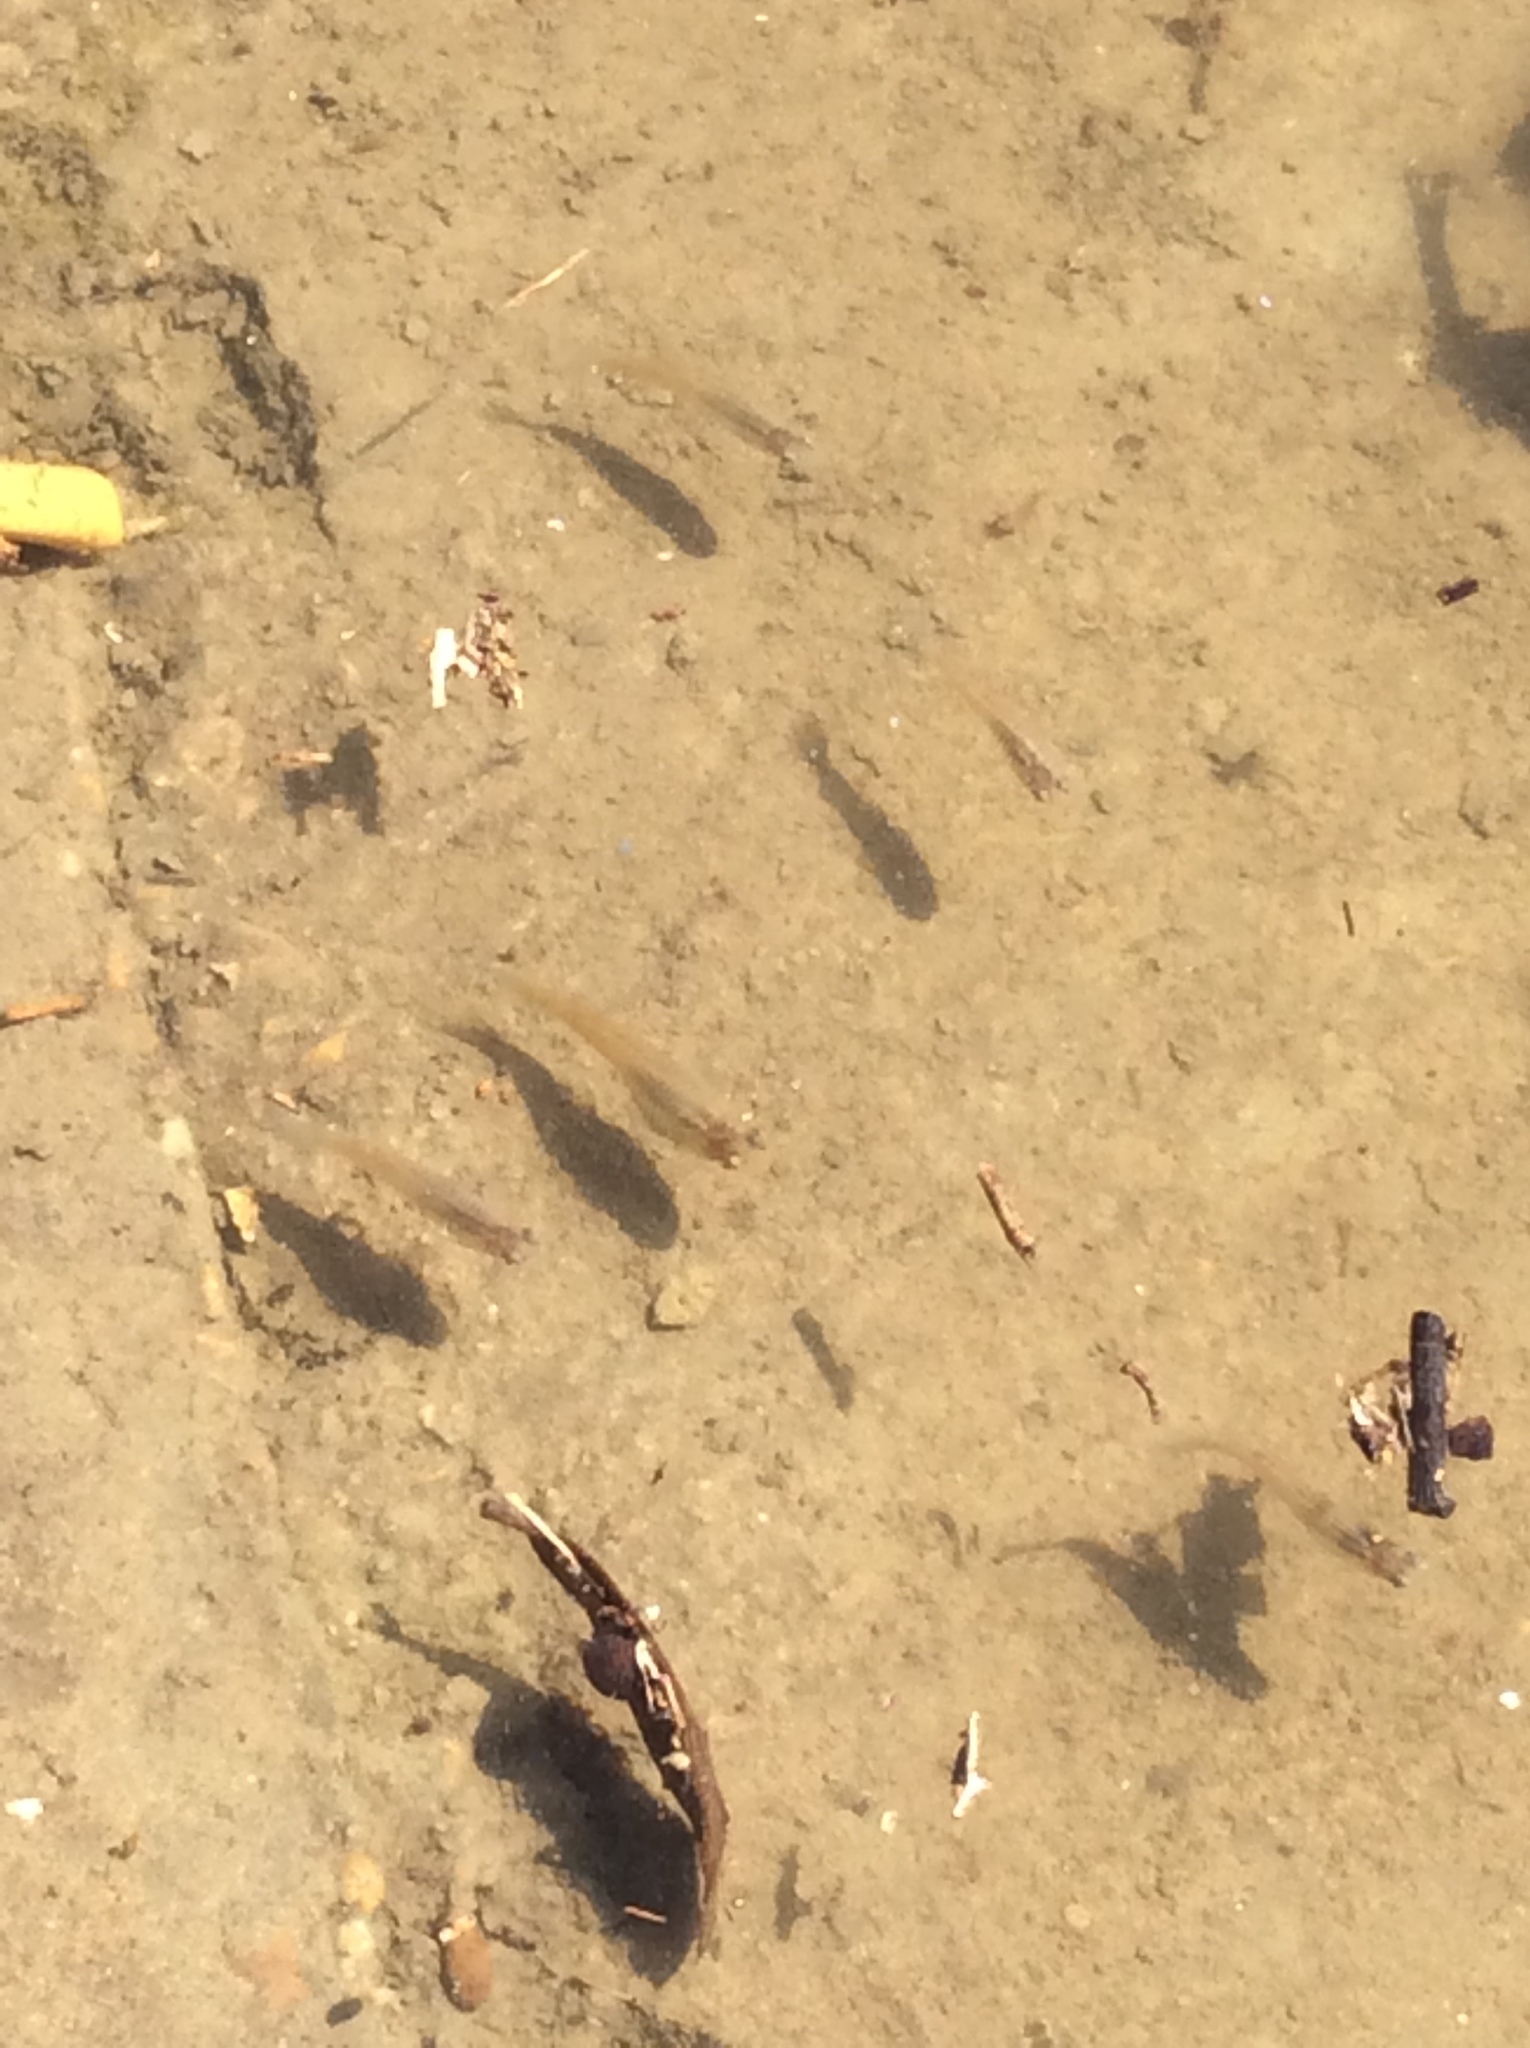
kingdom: Animalia
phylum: Chordata
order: Cyprinodontiformes
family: Poeciliidae
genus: Gambusia
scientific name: Gambusia affinis
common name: Mosquitofish
